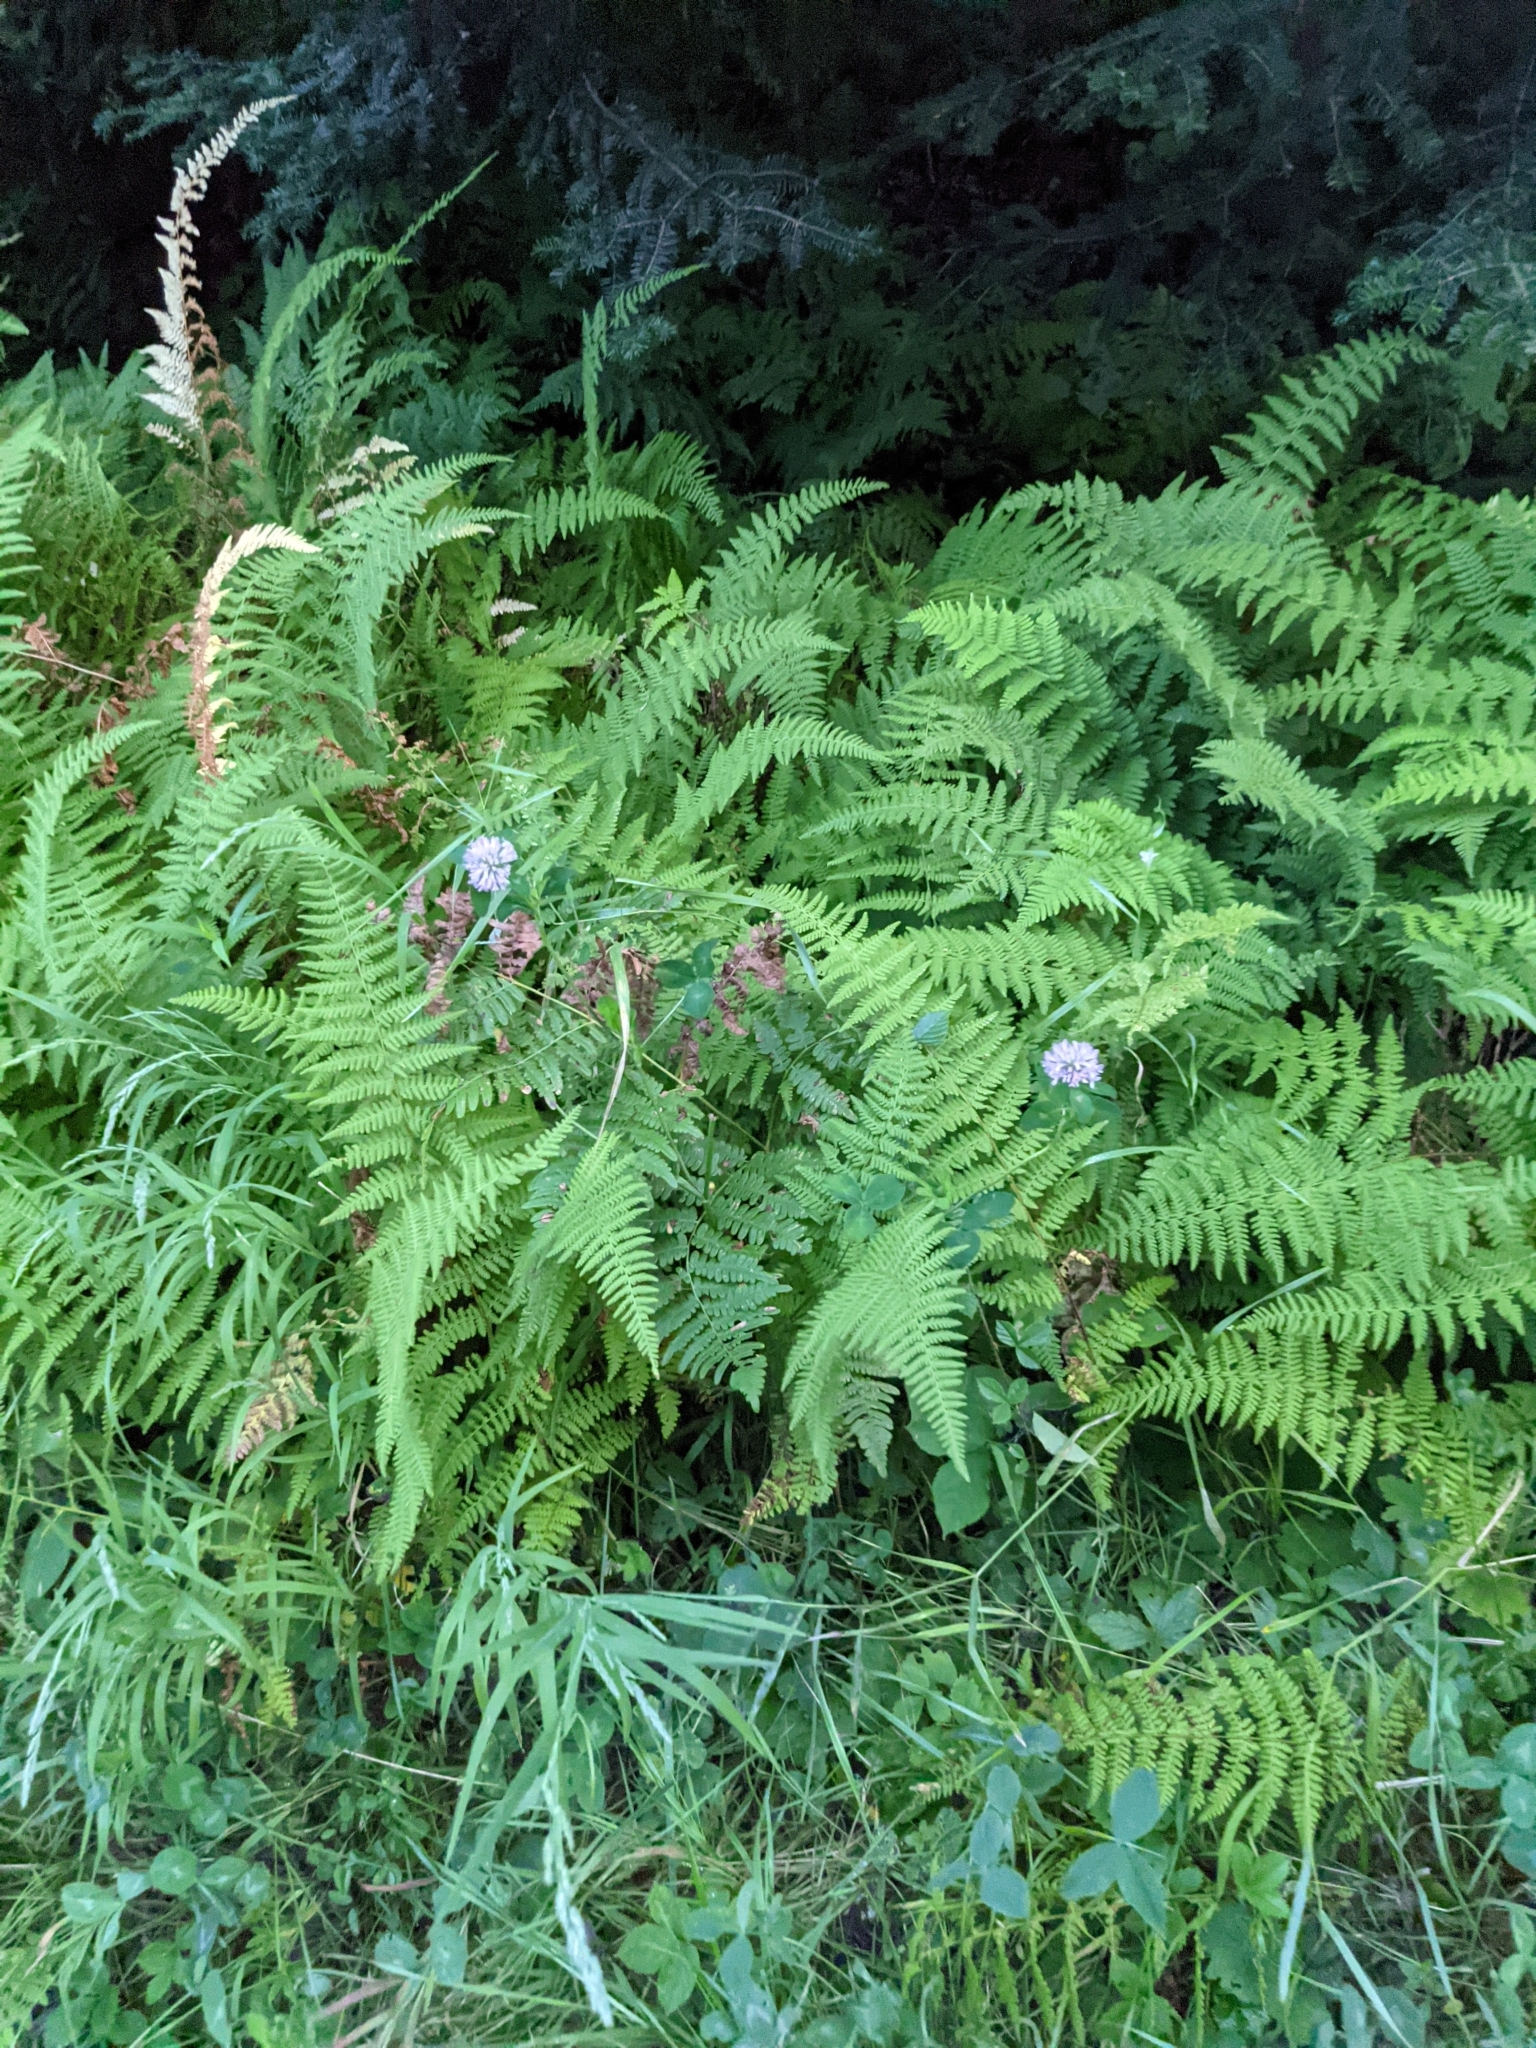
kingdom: Plantae
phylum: Tracheophyta
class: Magnoliopsida
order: Fabales
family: Fabaceae
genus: Trifolium
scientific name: Trifolium pratense
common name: Red clover
